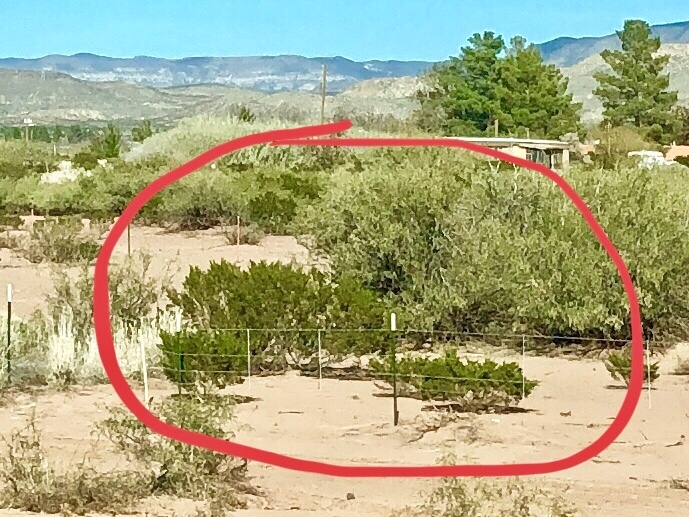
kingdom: Plantae
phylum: Tracheophyta
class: Magnoliopsida
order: Zygophyllales
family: Zygophyllaceae
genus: Larrea
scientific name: Larrea tridentata
